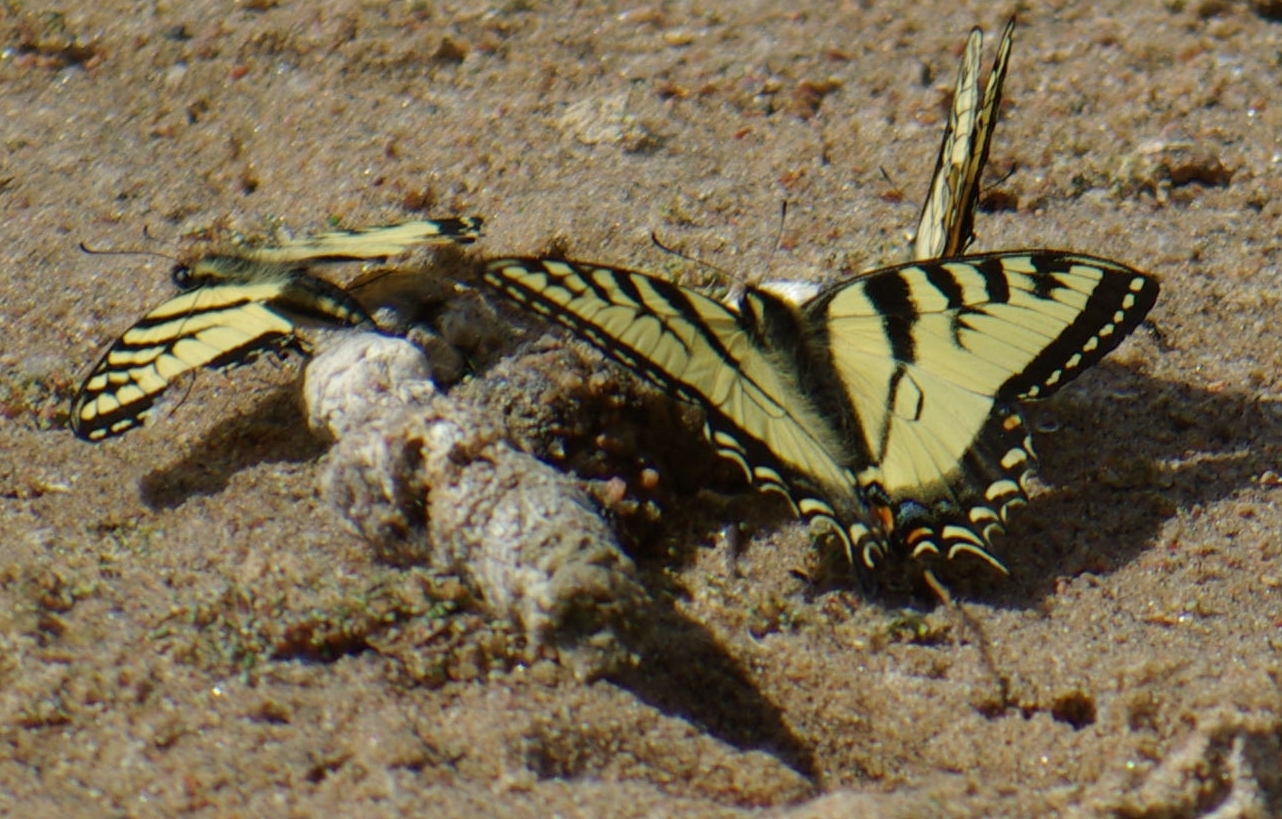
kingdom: Animalia
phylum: Arthropoda
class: Insecta
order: Lepidoptera
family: Papilionidae
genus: Papilio
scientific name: Papilio canadensis
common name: Canadian tiger swallowtail
